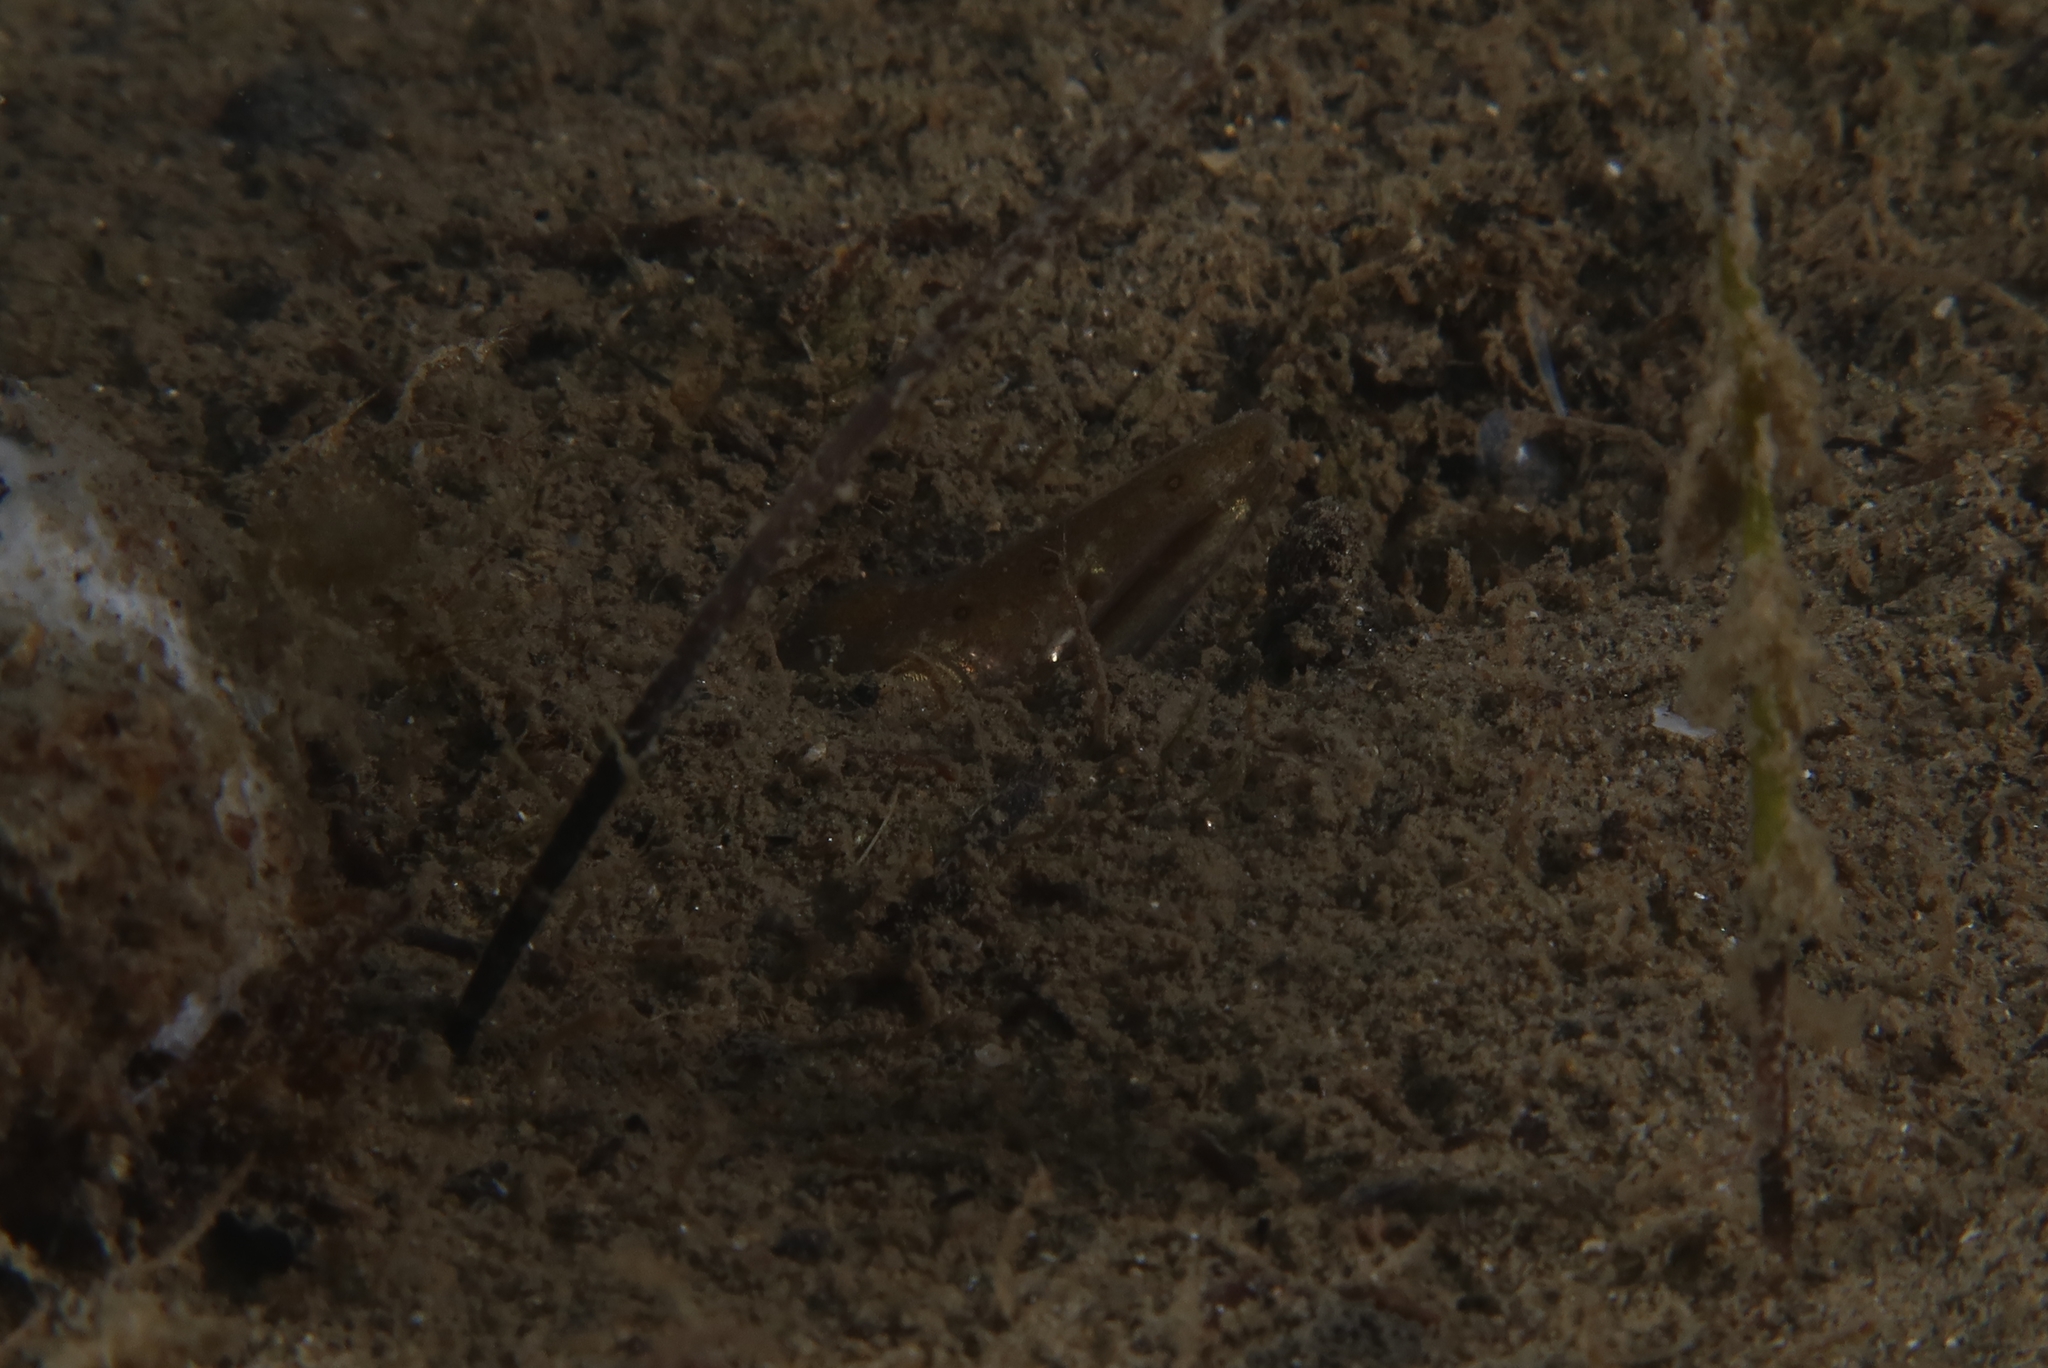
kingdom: Animalia
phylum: Chordata
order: Anguilliformes
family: Ophichthidae
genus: Ophisurus
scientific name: Ophisurus serpens
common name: Serpent eel
